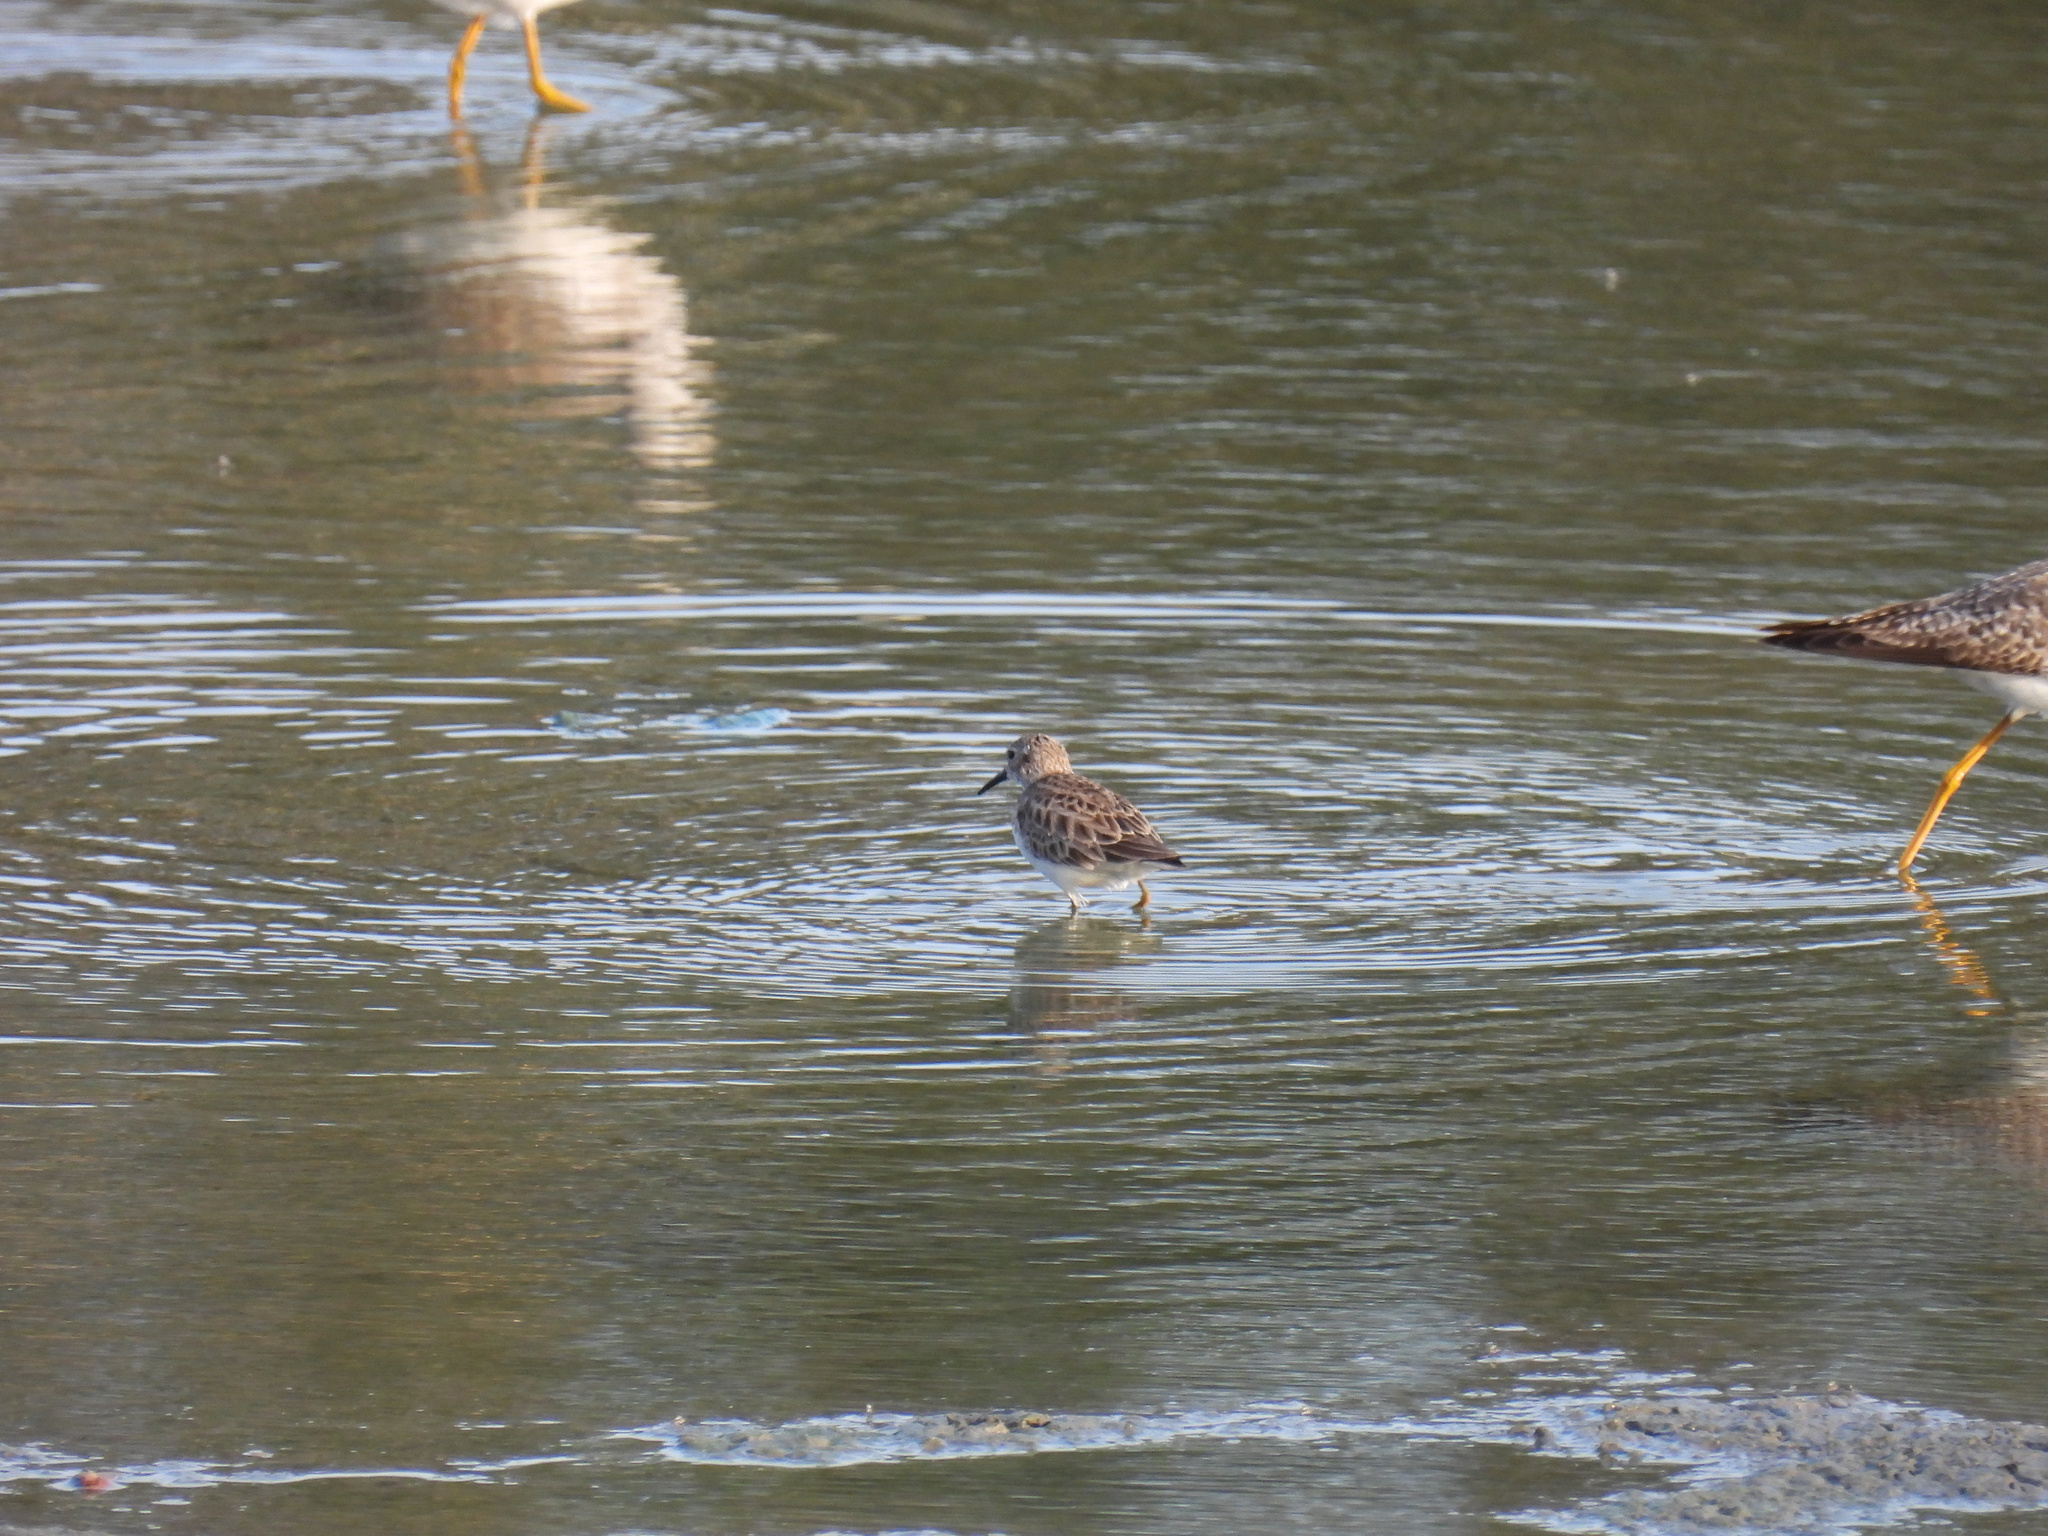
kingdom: Animalia
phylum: Chordata
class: Aves
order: Charadriiformes
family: Scolopacidae
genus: Calidris
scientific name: Calidris minutilla
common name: Least sandpiper
